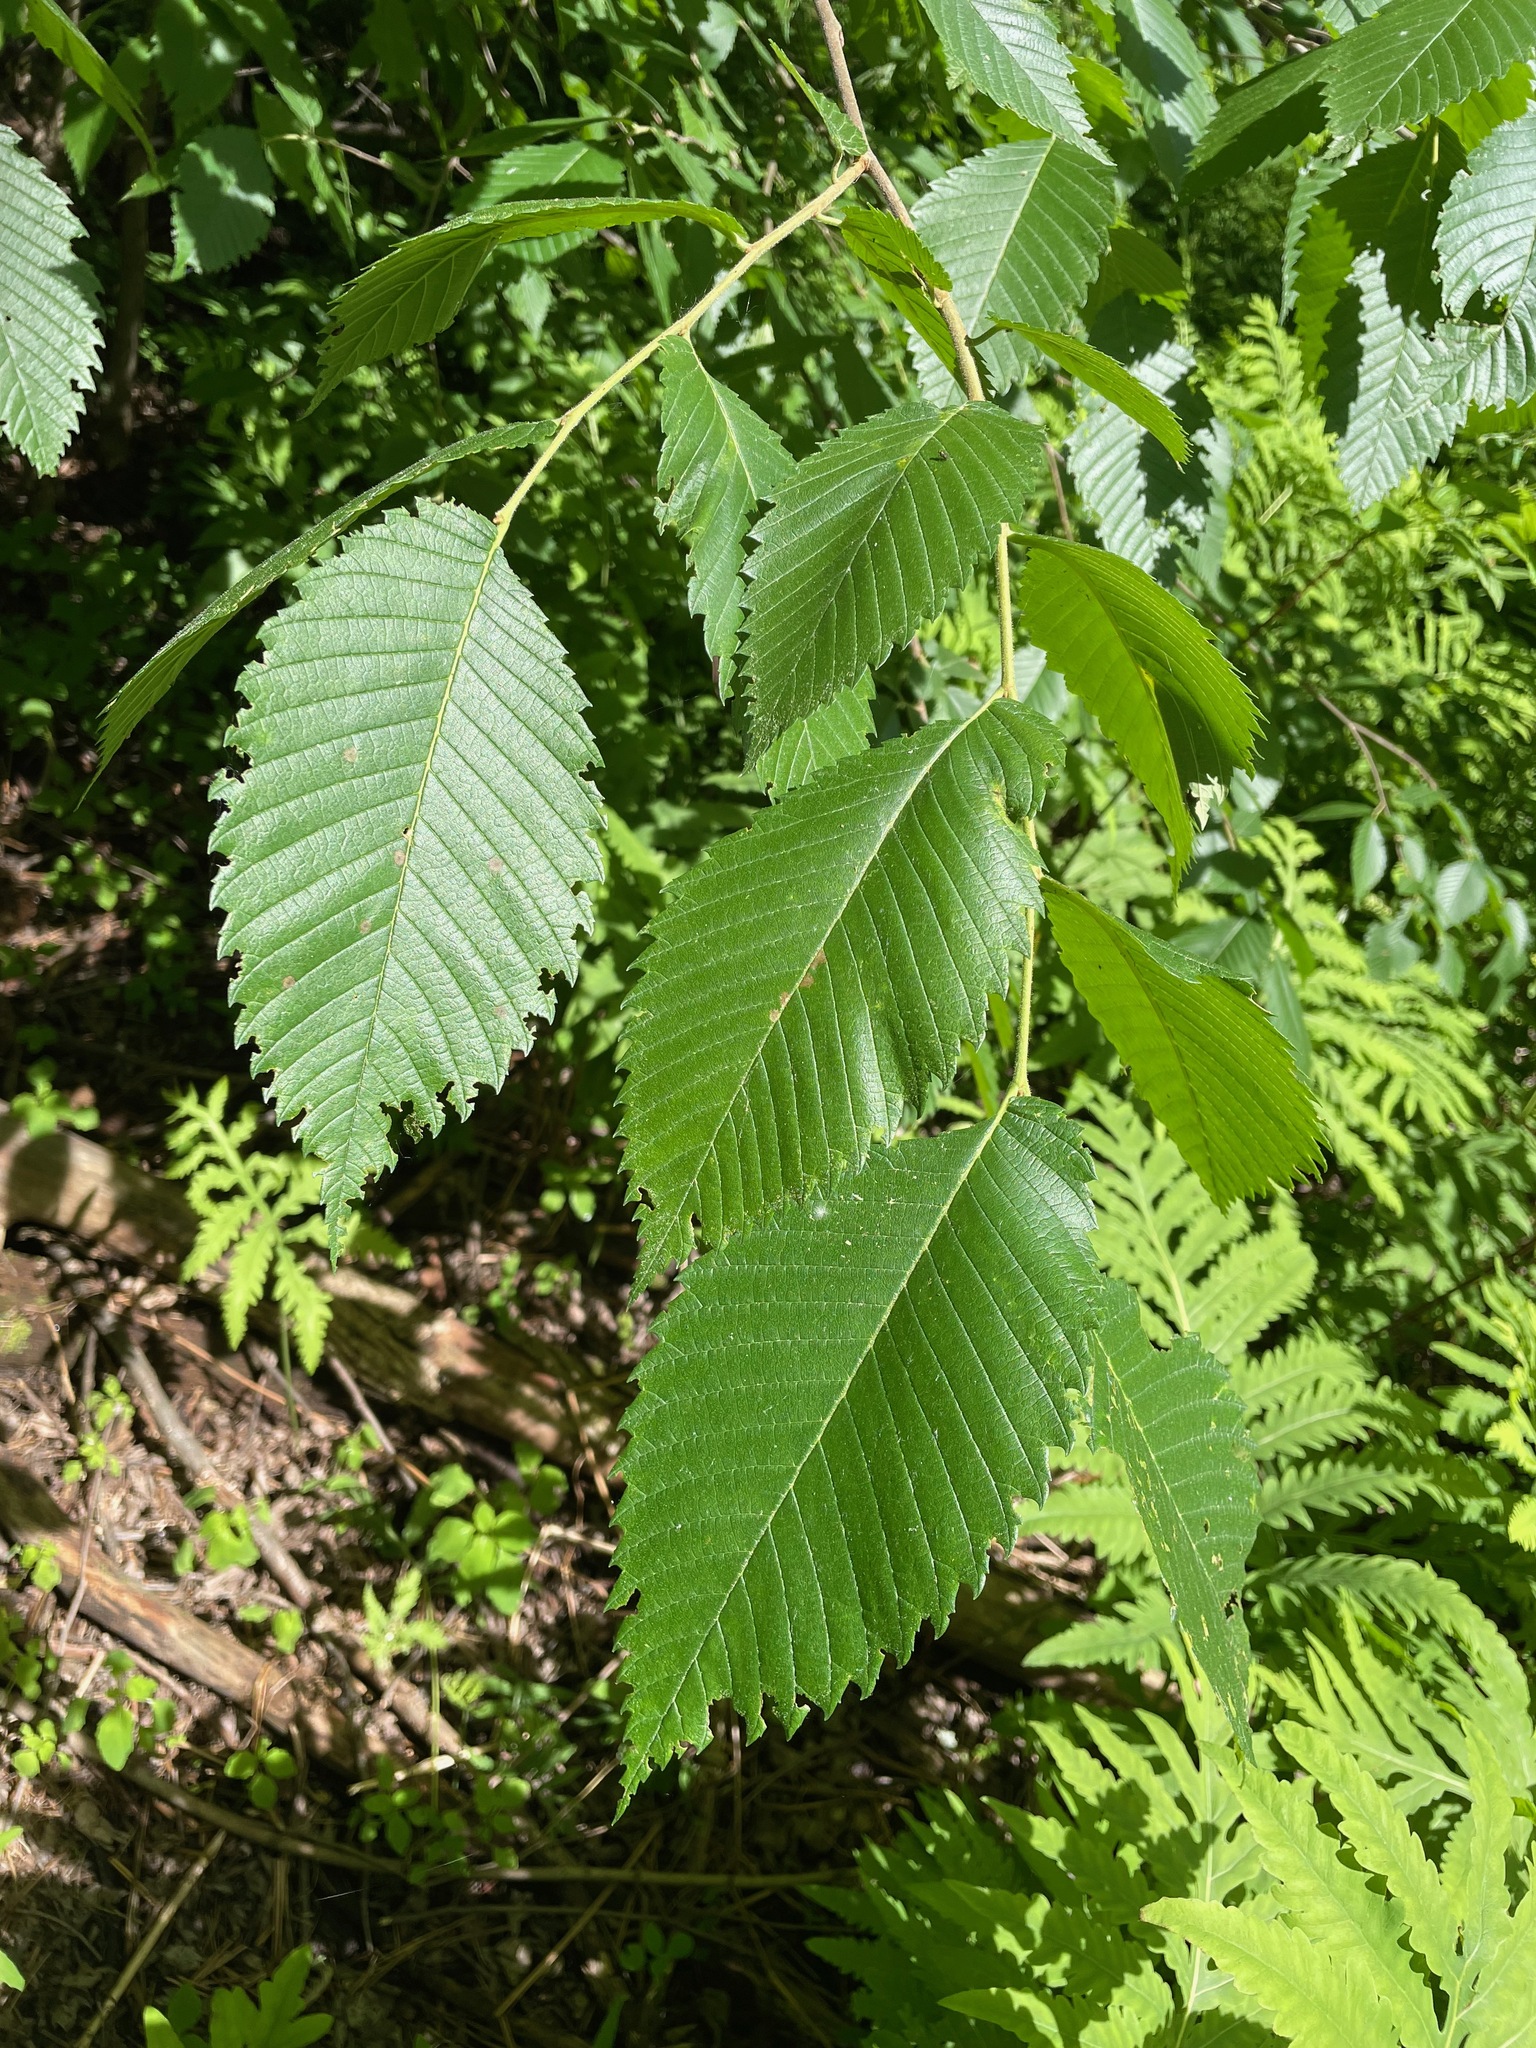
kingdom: Plantae
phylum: Tracheophyta
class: Magnoliopsida
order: Rosales
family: Ulmaceae
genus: Ulmus
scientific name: Ulmus americana
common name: American elm
